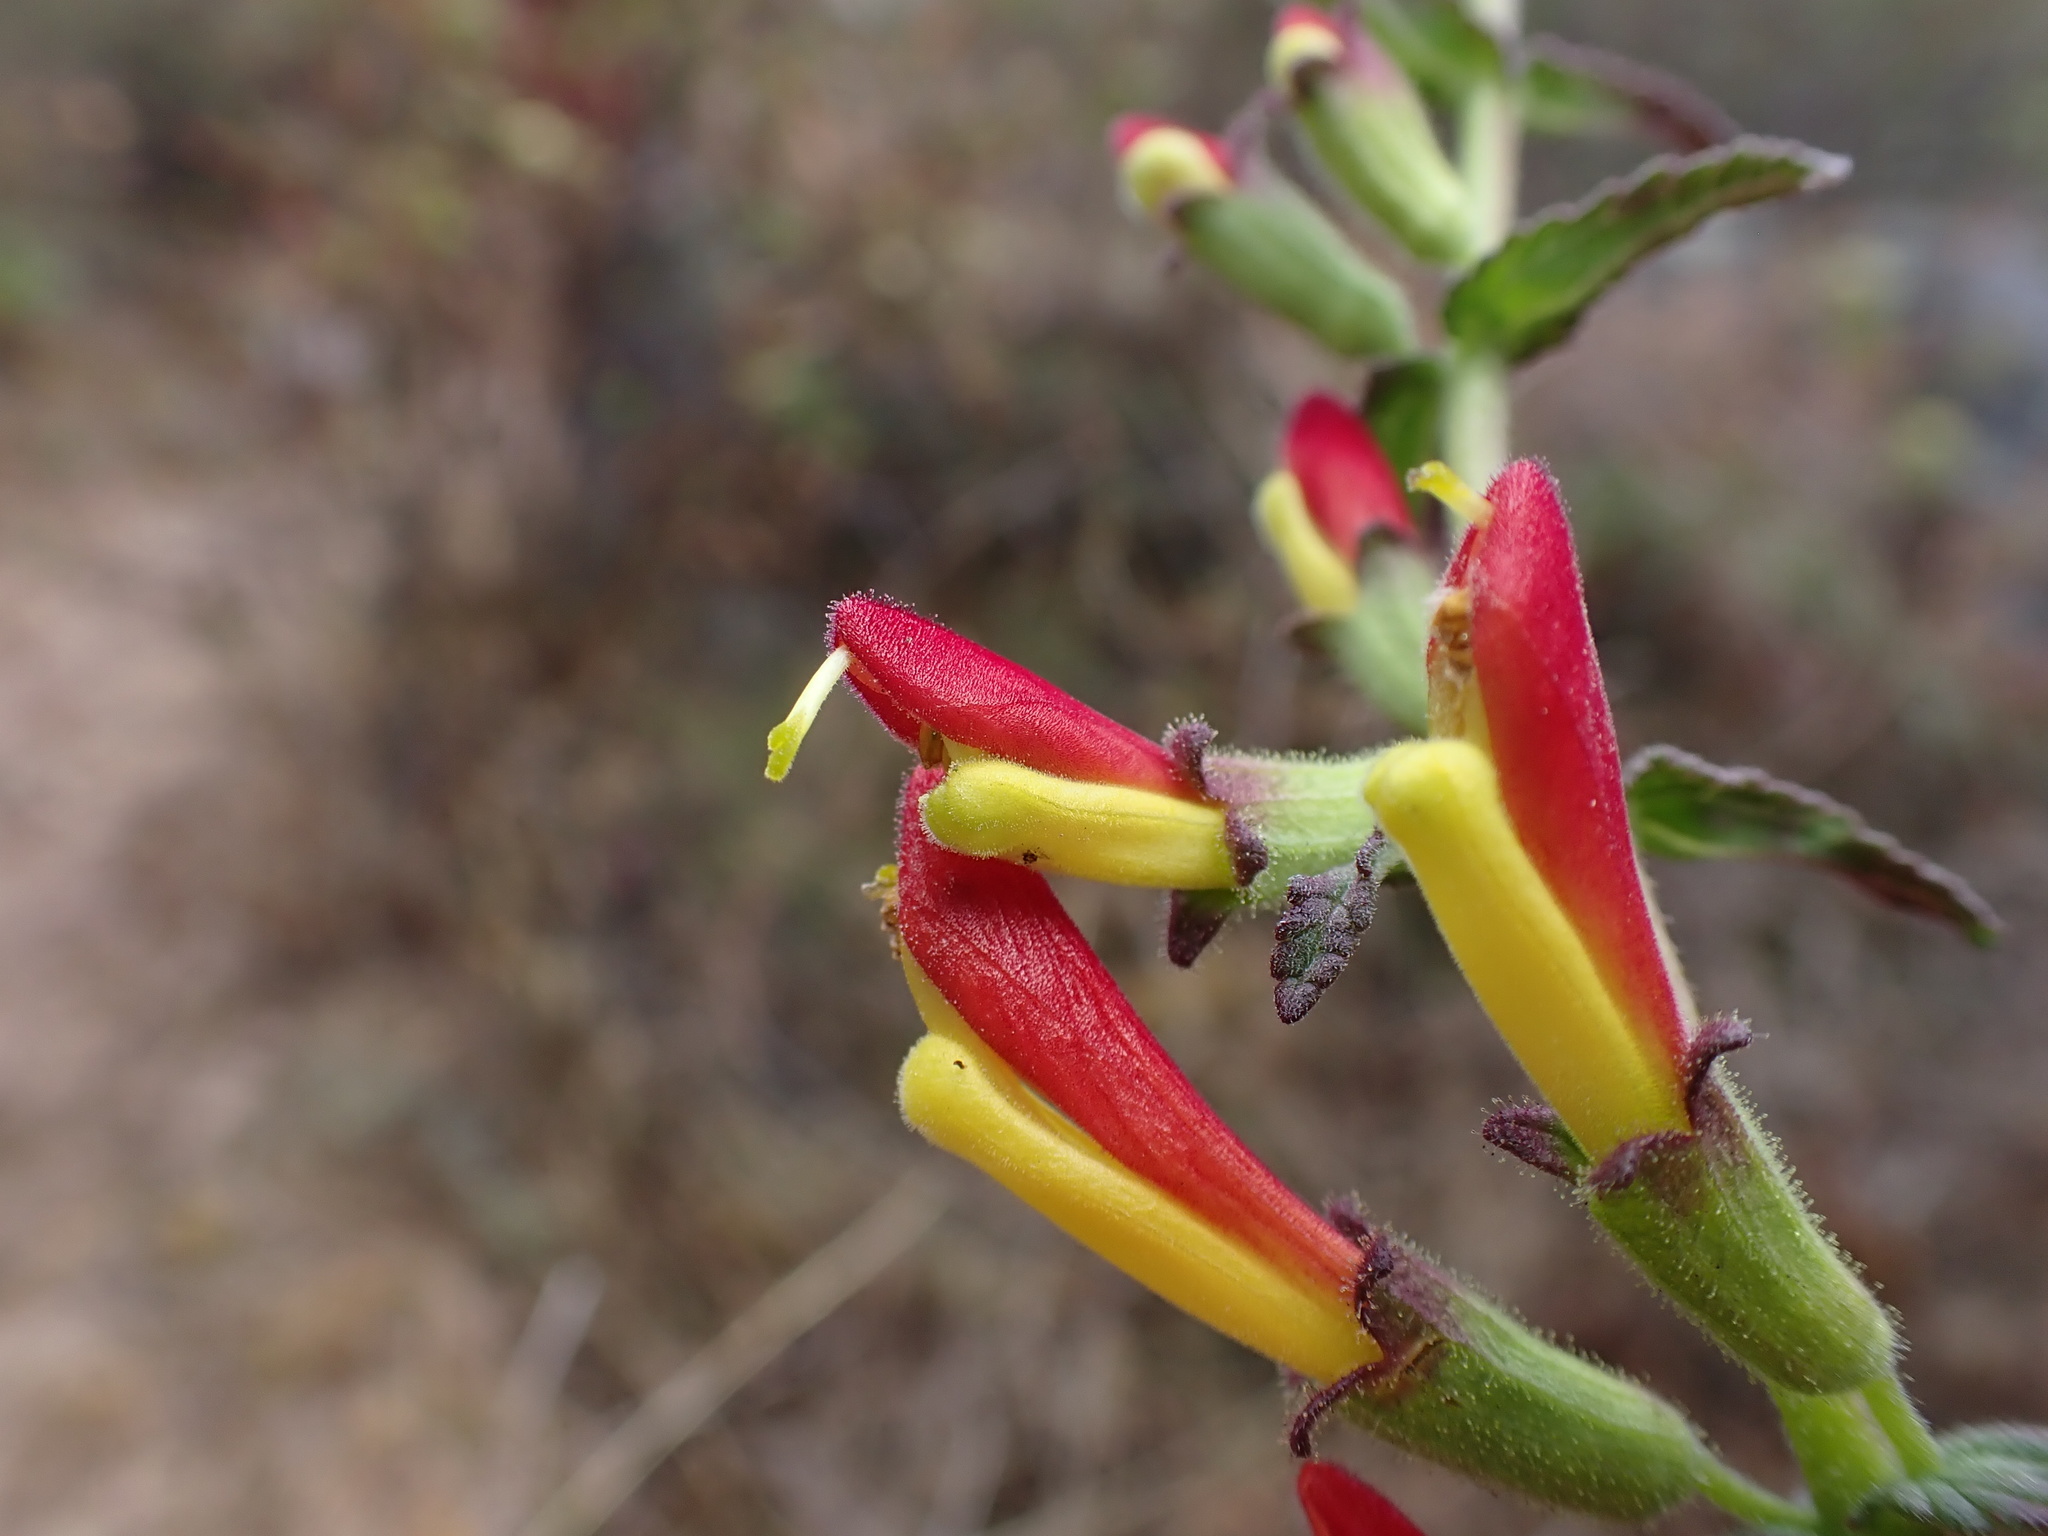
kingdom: Plantae
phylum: Tracheophyta
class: Magnoliopsida
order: Lamiales
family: Orobanchaceae
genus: Neobartsia
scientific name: Neobartsia camporum
